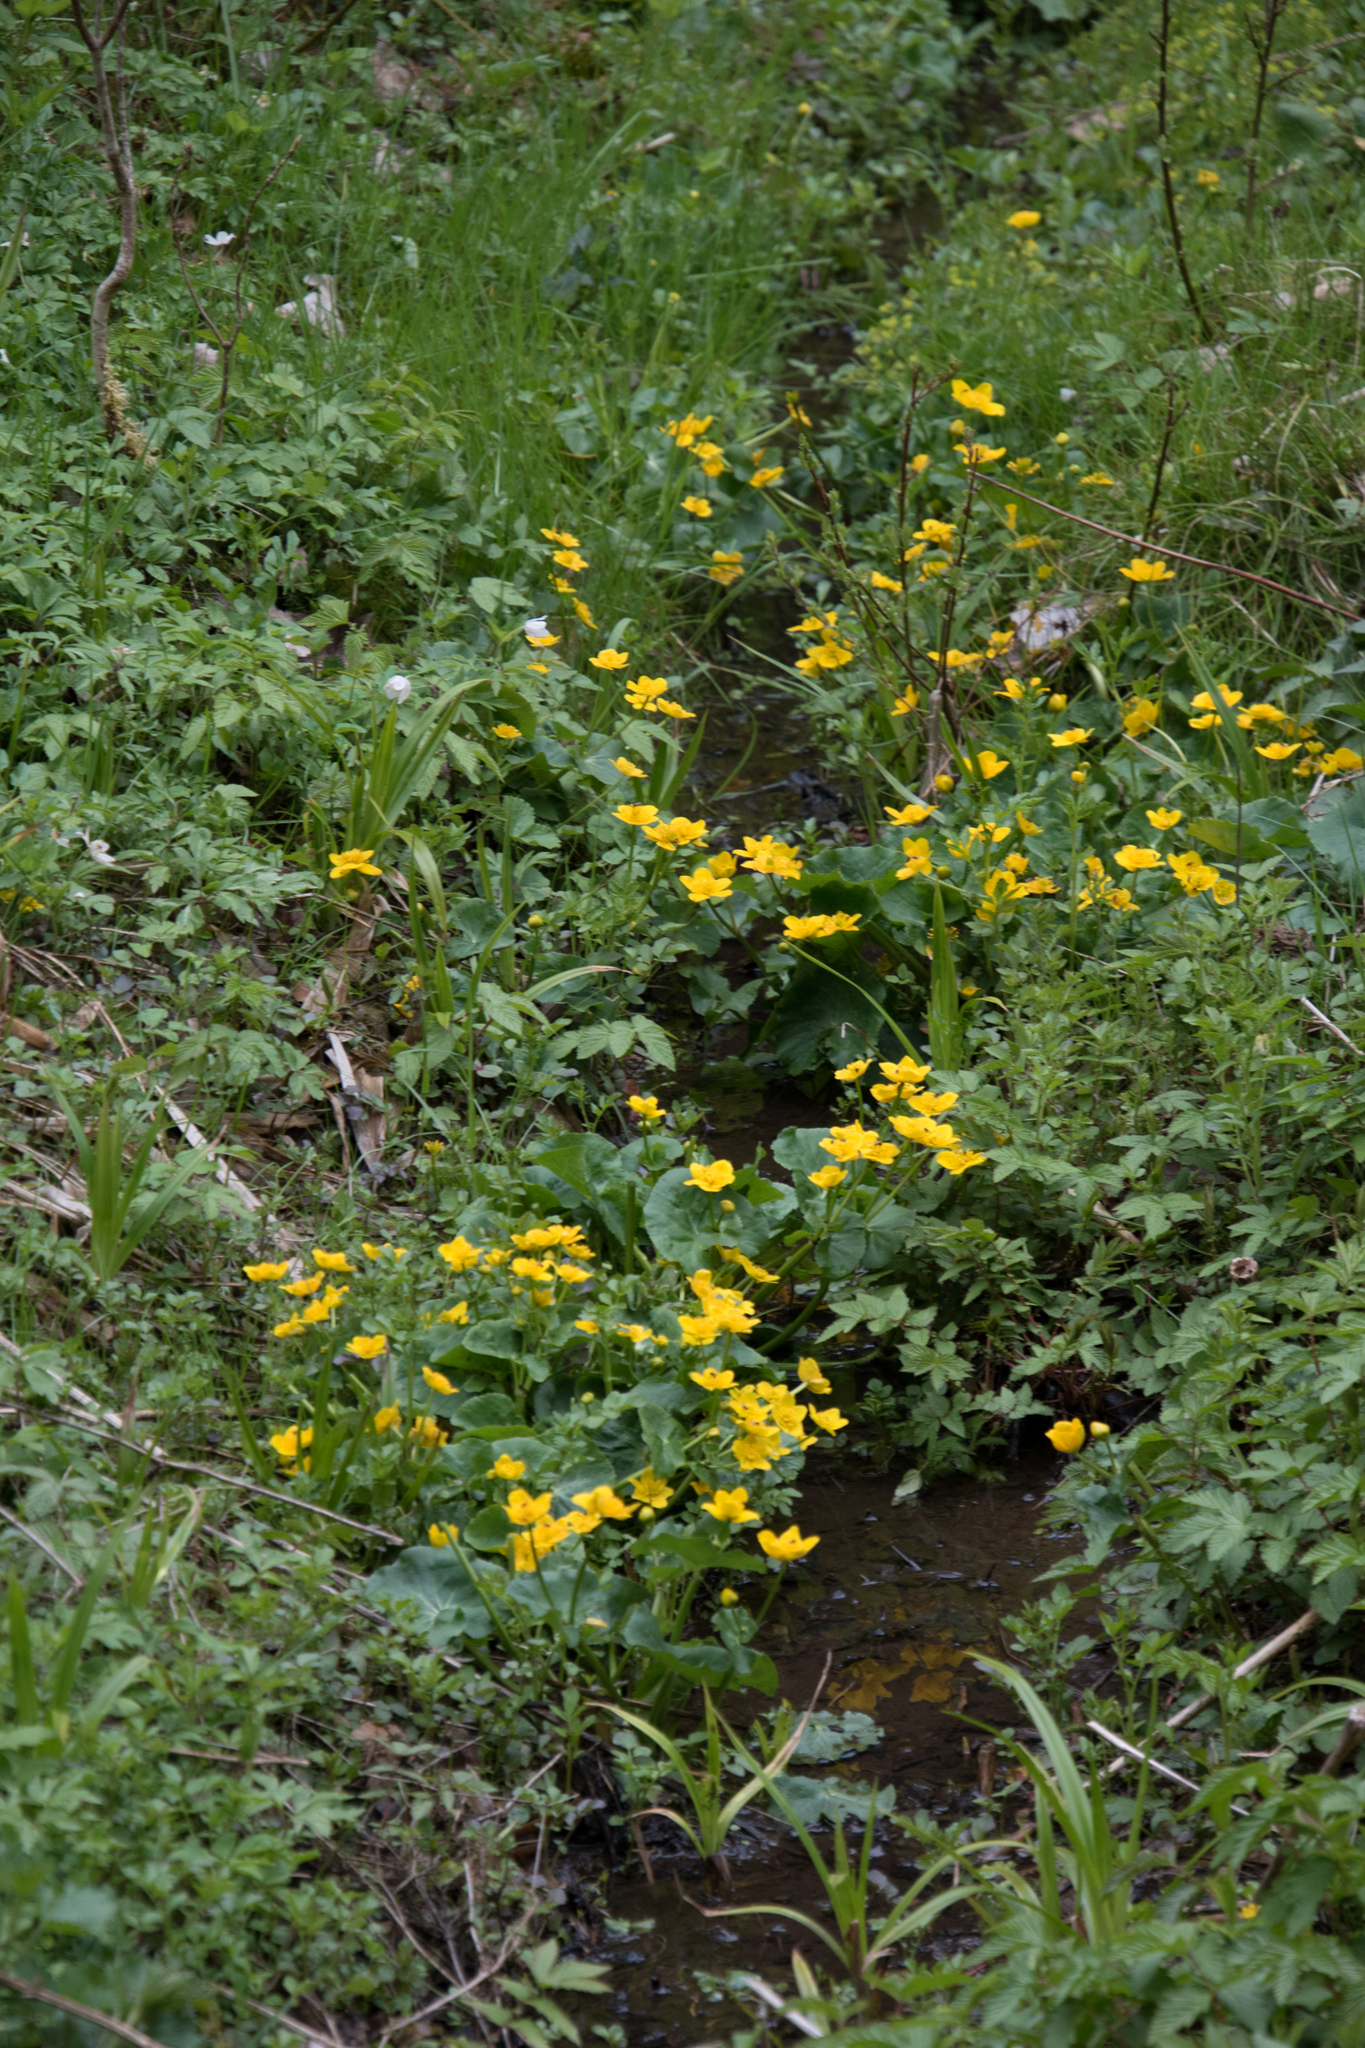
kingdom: Plantae
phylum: Tracheophyta
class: Magnoliopsida
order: Ranunculales
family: Ranunculaceae
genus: Caltha
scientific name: Caltha palustris
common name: Marsh marigold
